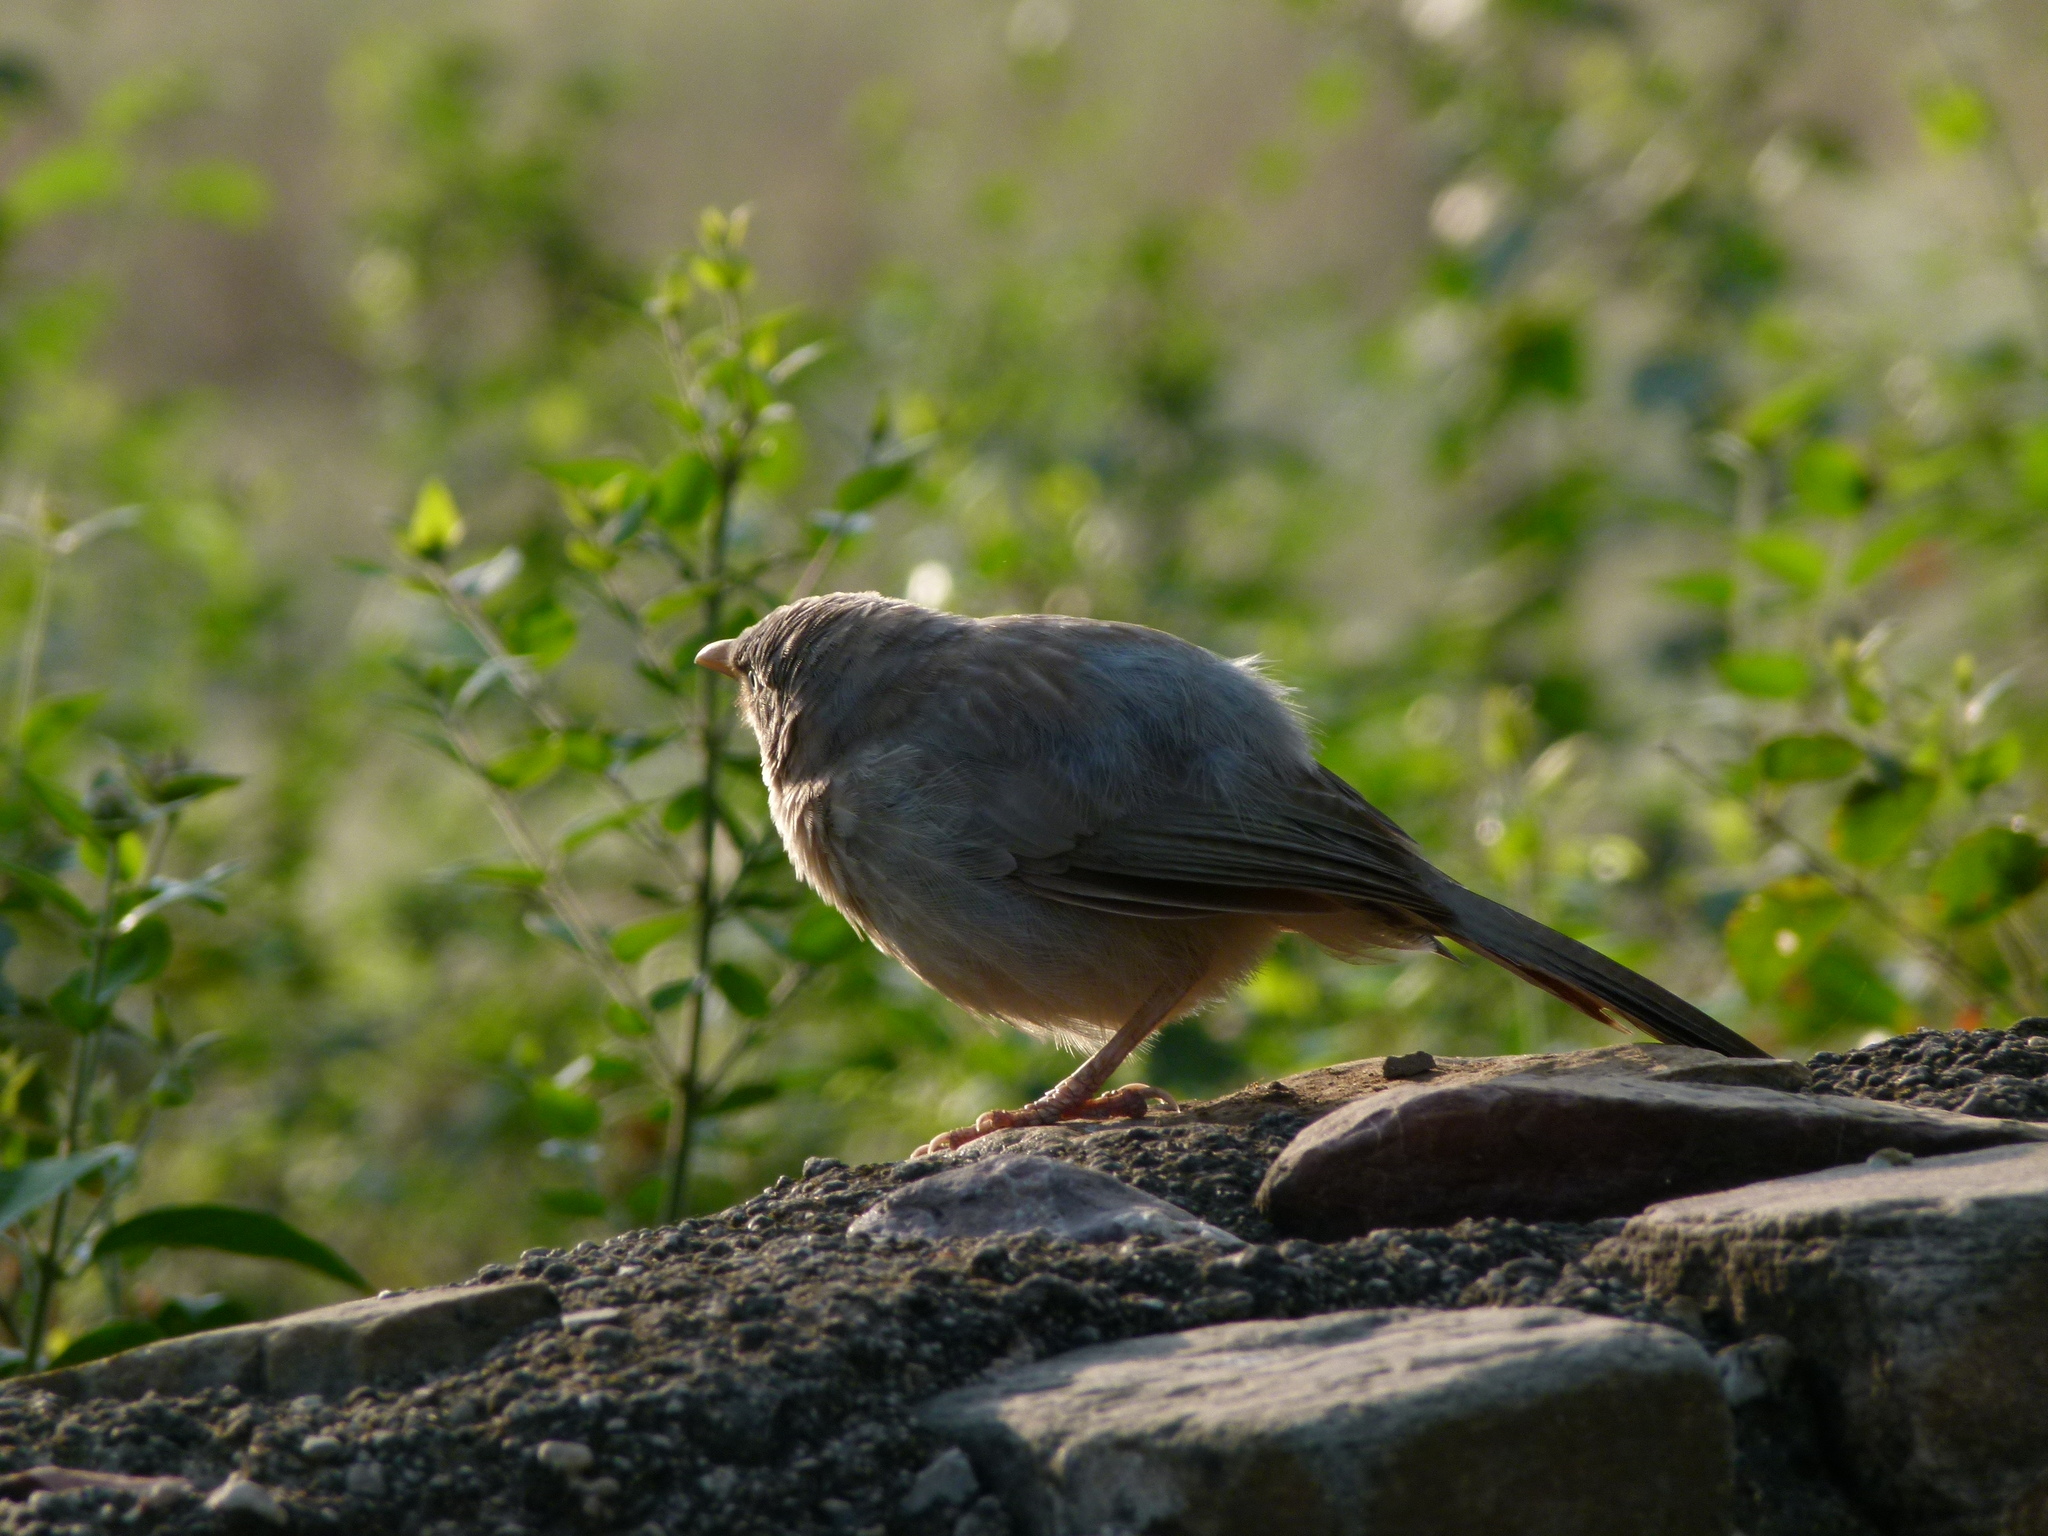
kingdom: Animalia
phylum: Chordata
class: Aves
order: Passeriformes
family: Leiothrichidae
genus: Turdoides
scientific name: Turdoides striata
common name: Jungle babbler
